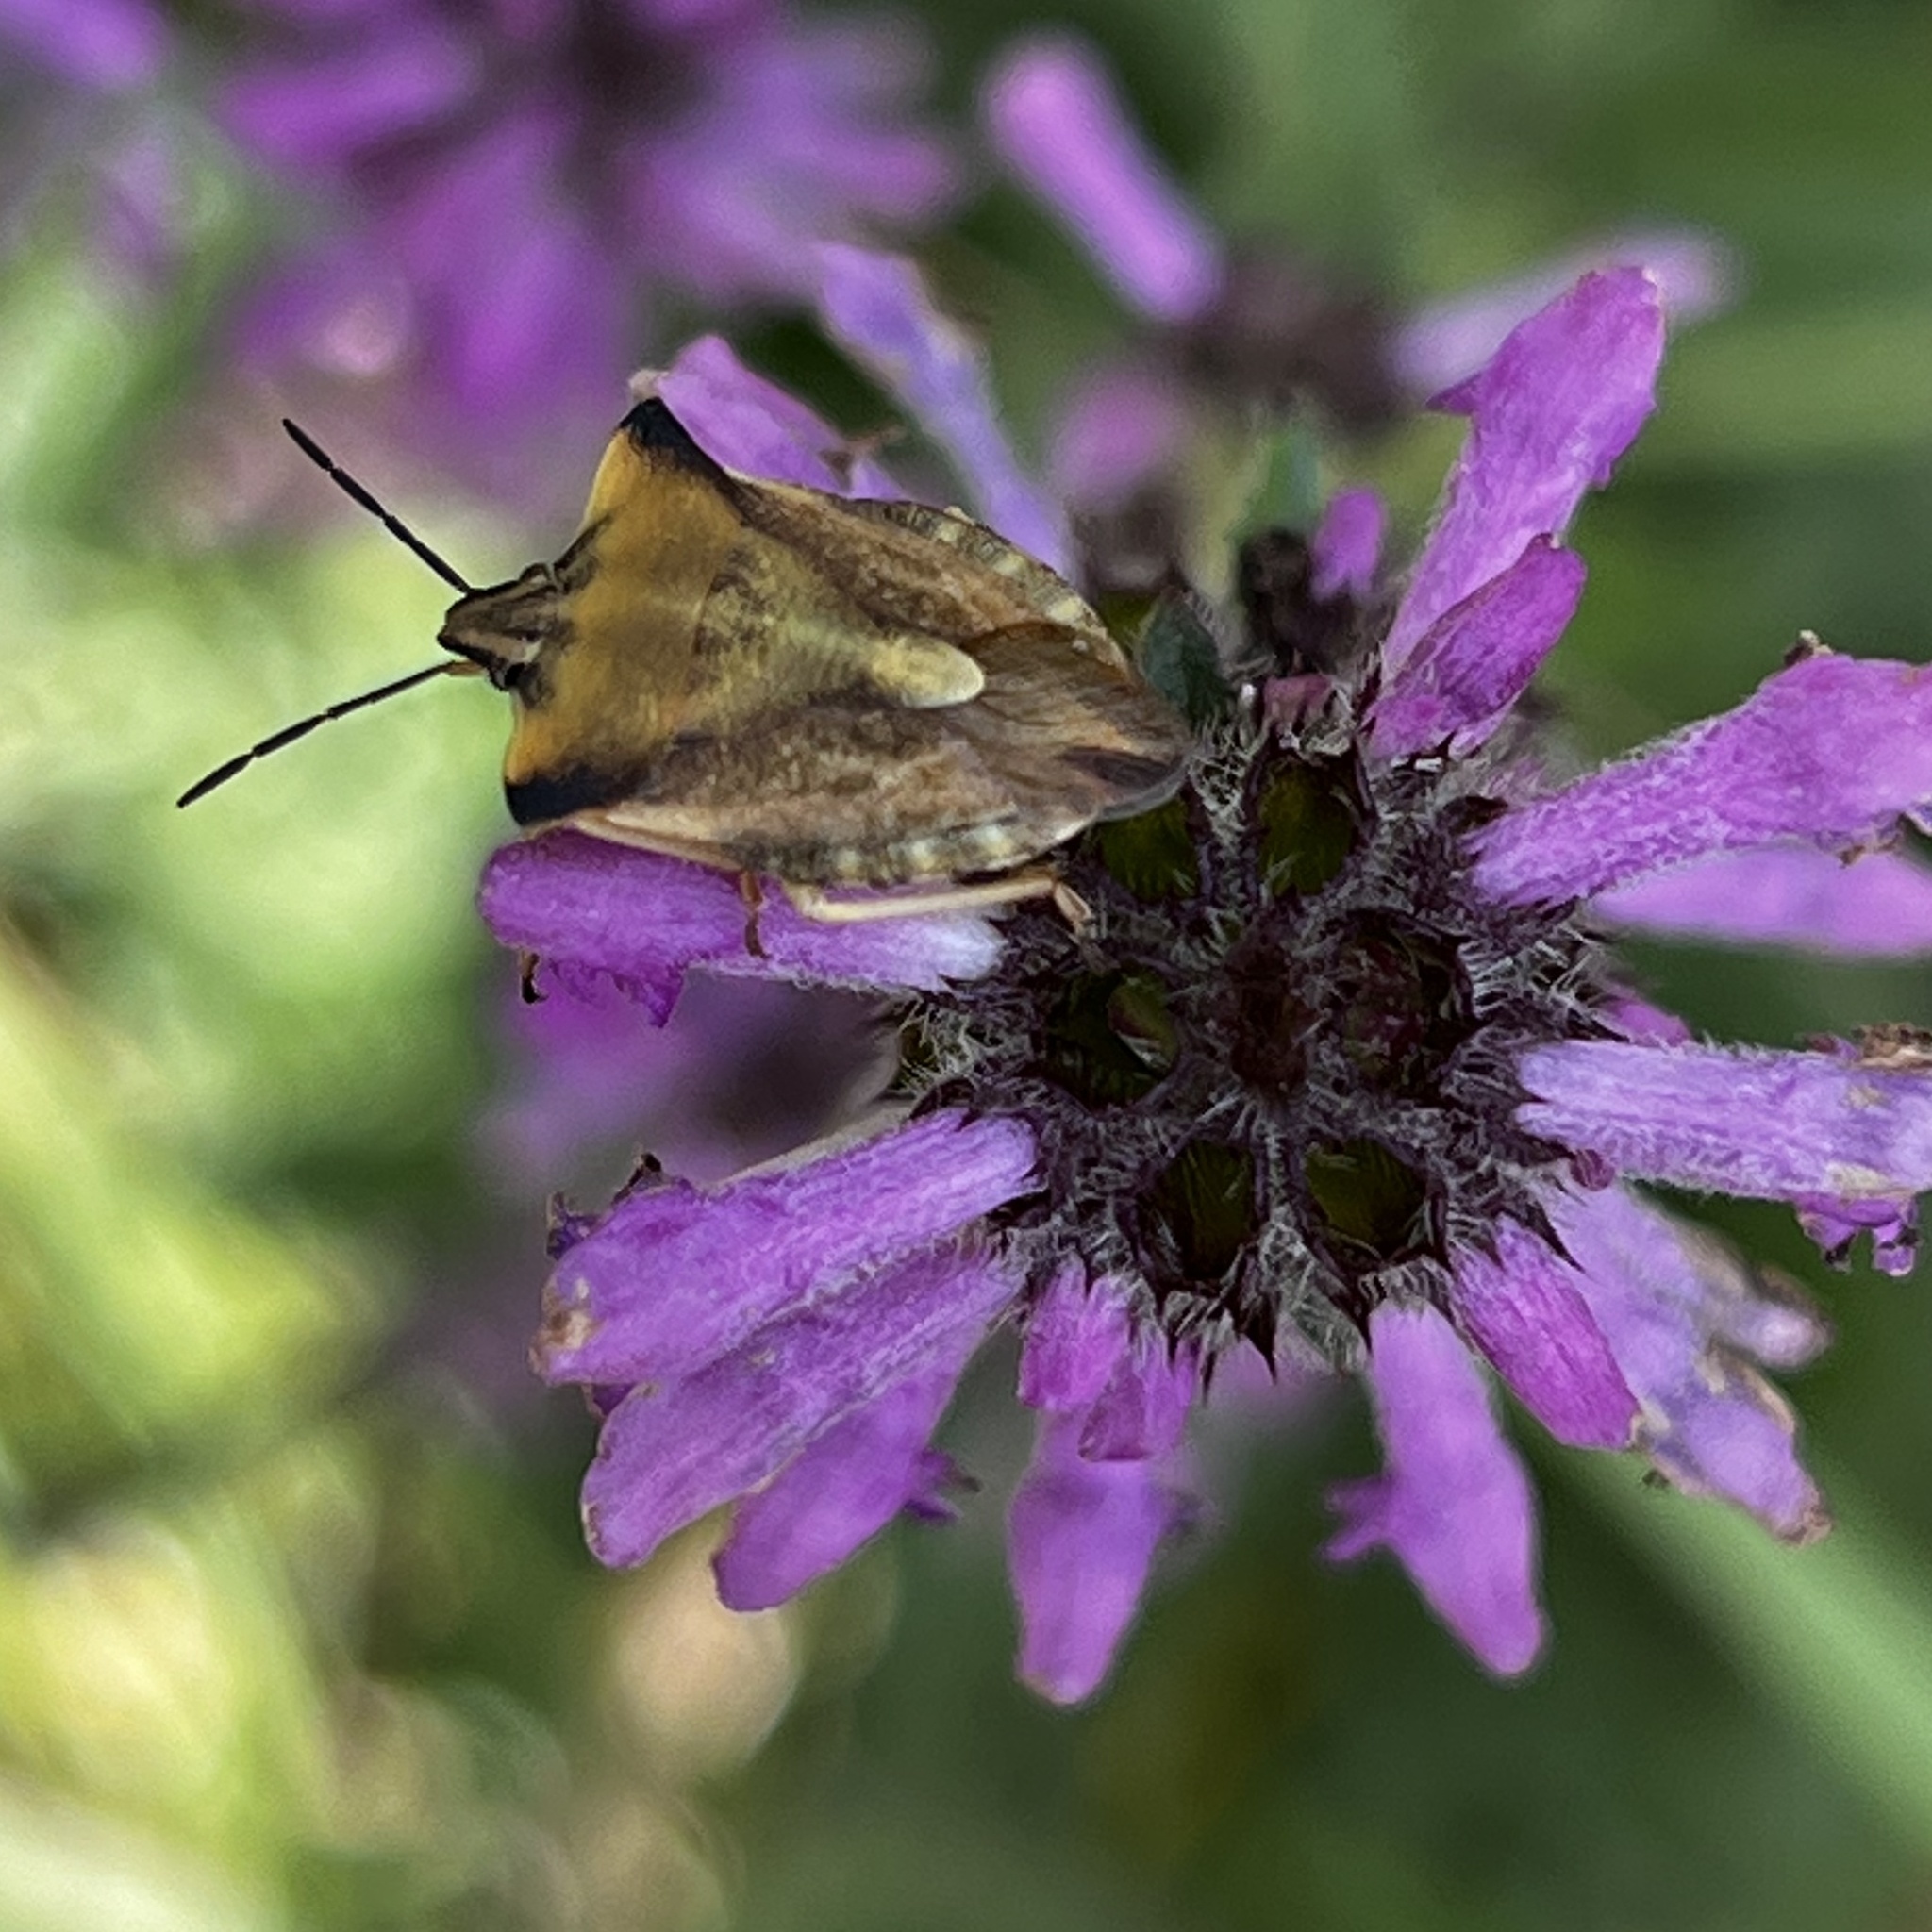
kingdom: Animalia
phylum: Arthropoda
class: Insecta
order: Hemiptera
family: Pentatomidae
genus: Carpocoris
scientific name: Carpocoris fuscispinus
